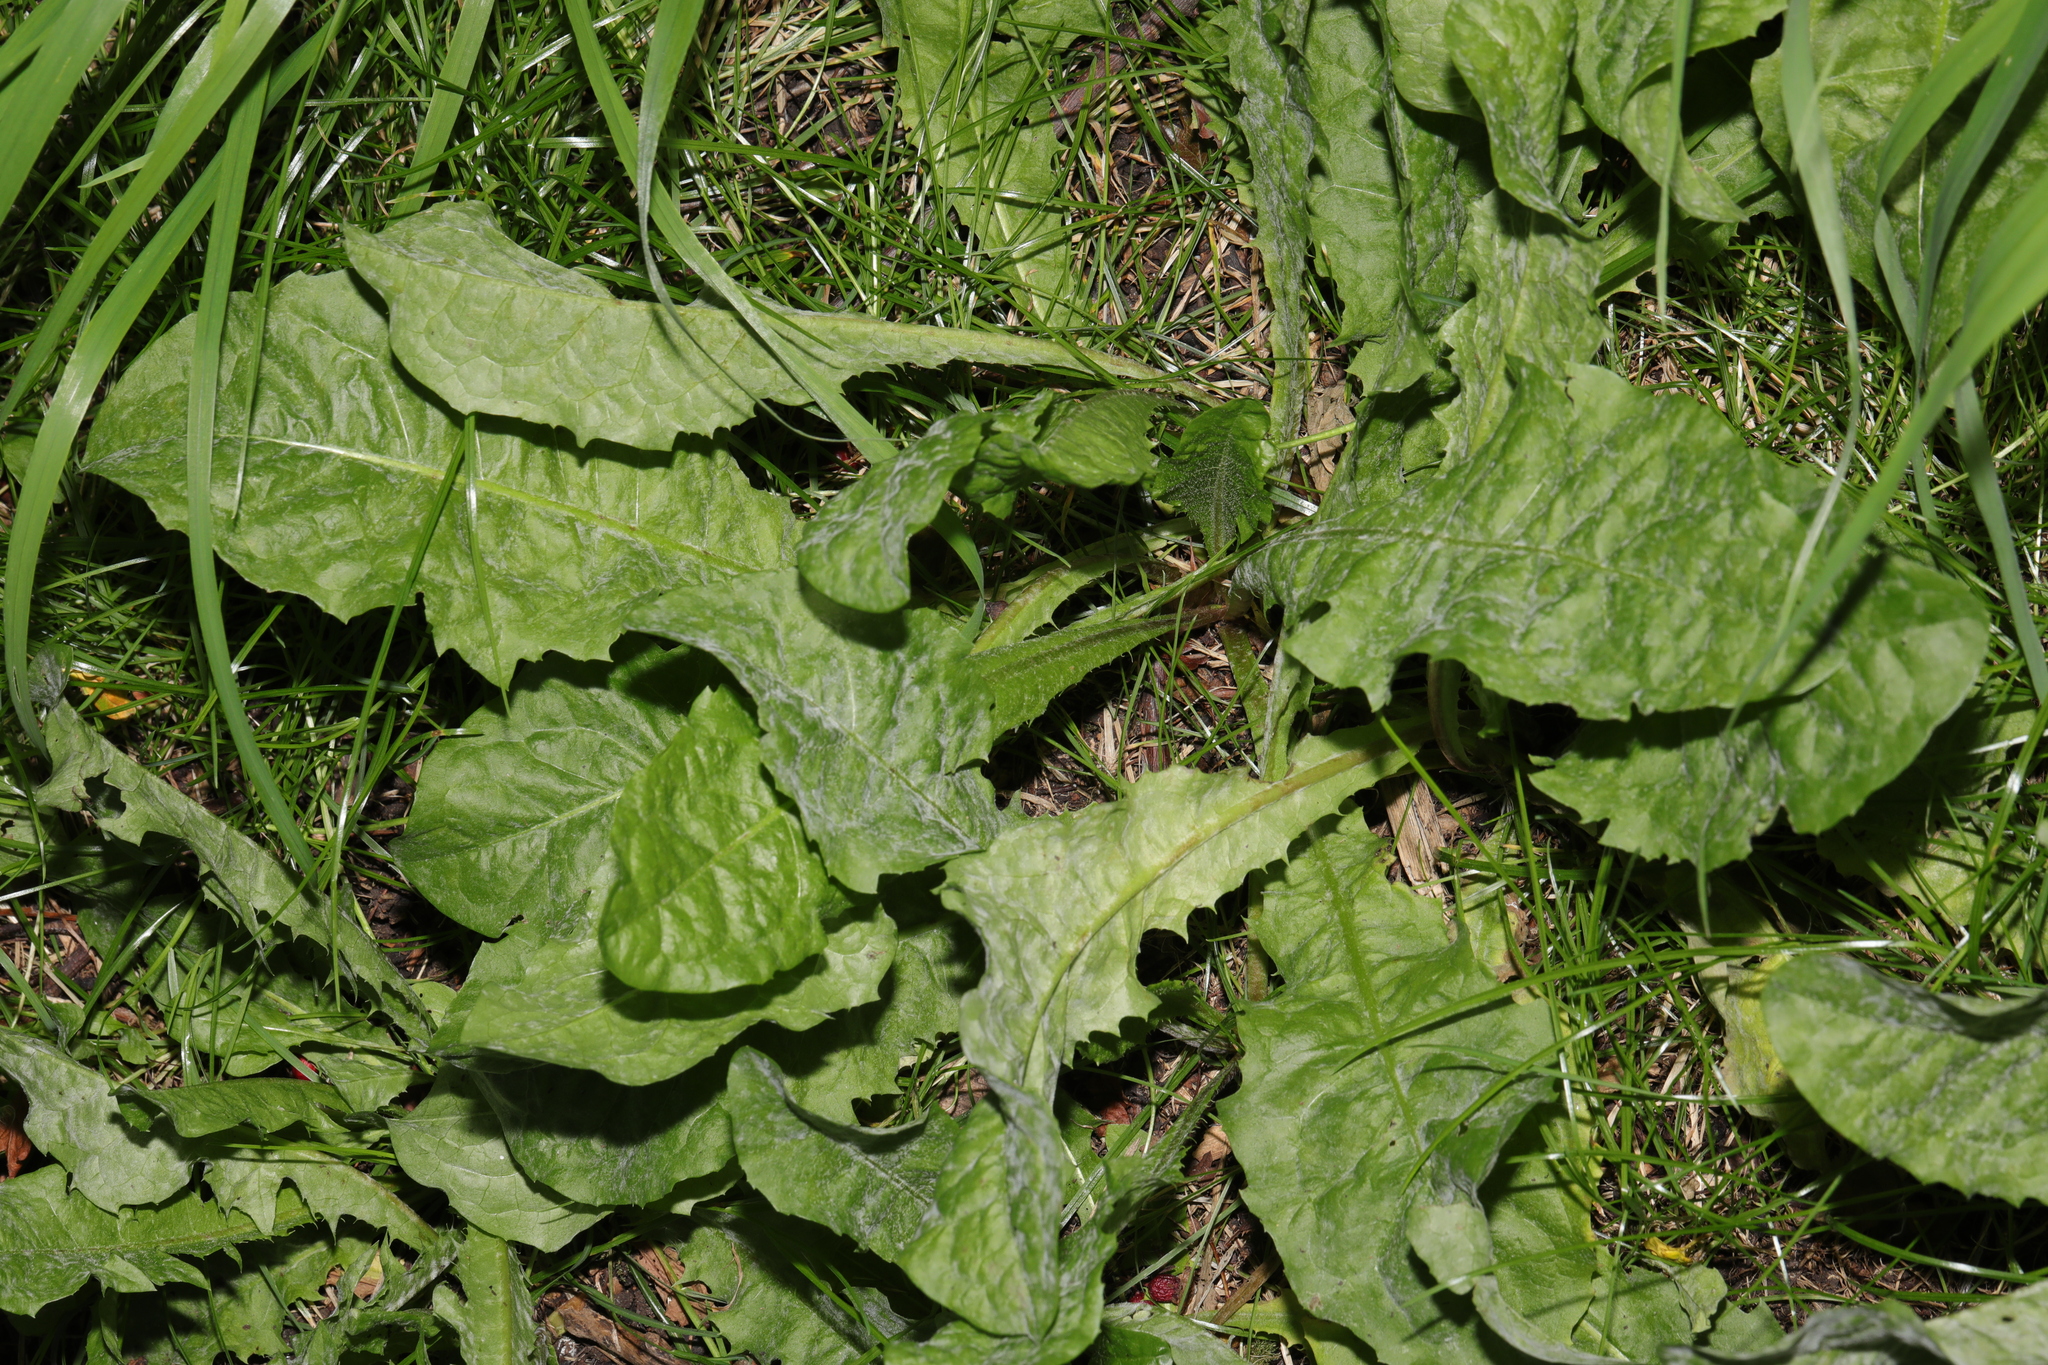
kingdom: Plantae
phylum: Tracheophyta
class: Magnoliopsida
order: Asterales
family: Asteraceae
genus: Taraxacum
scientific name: Taraxacum officinale
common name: Common dandelion
